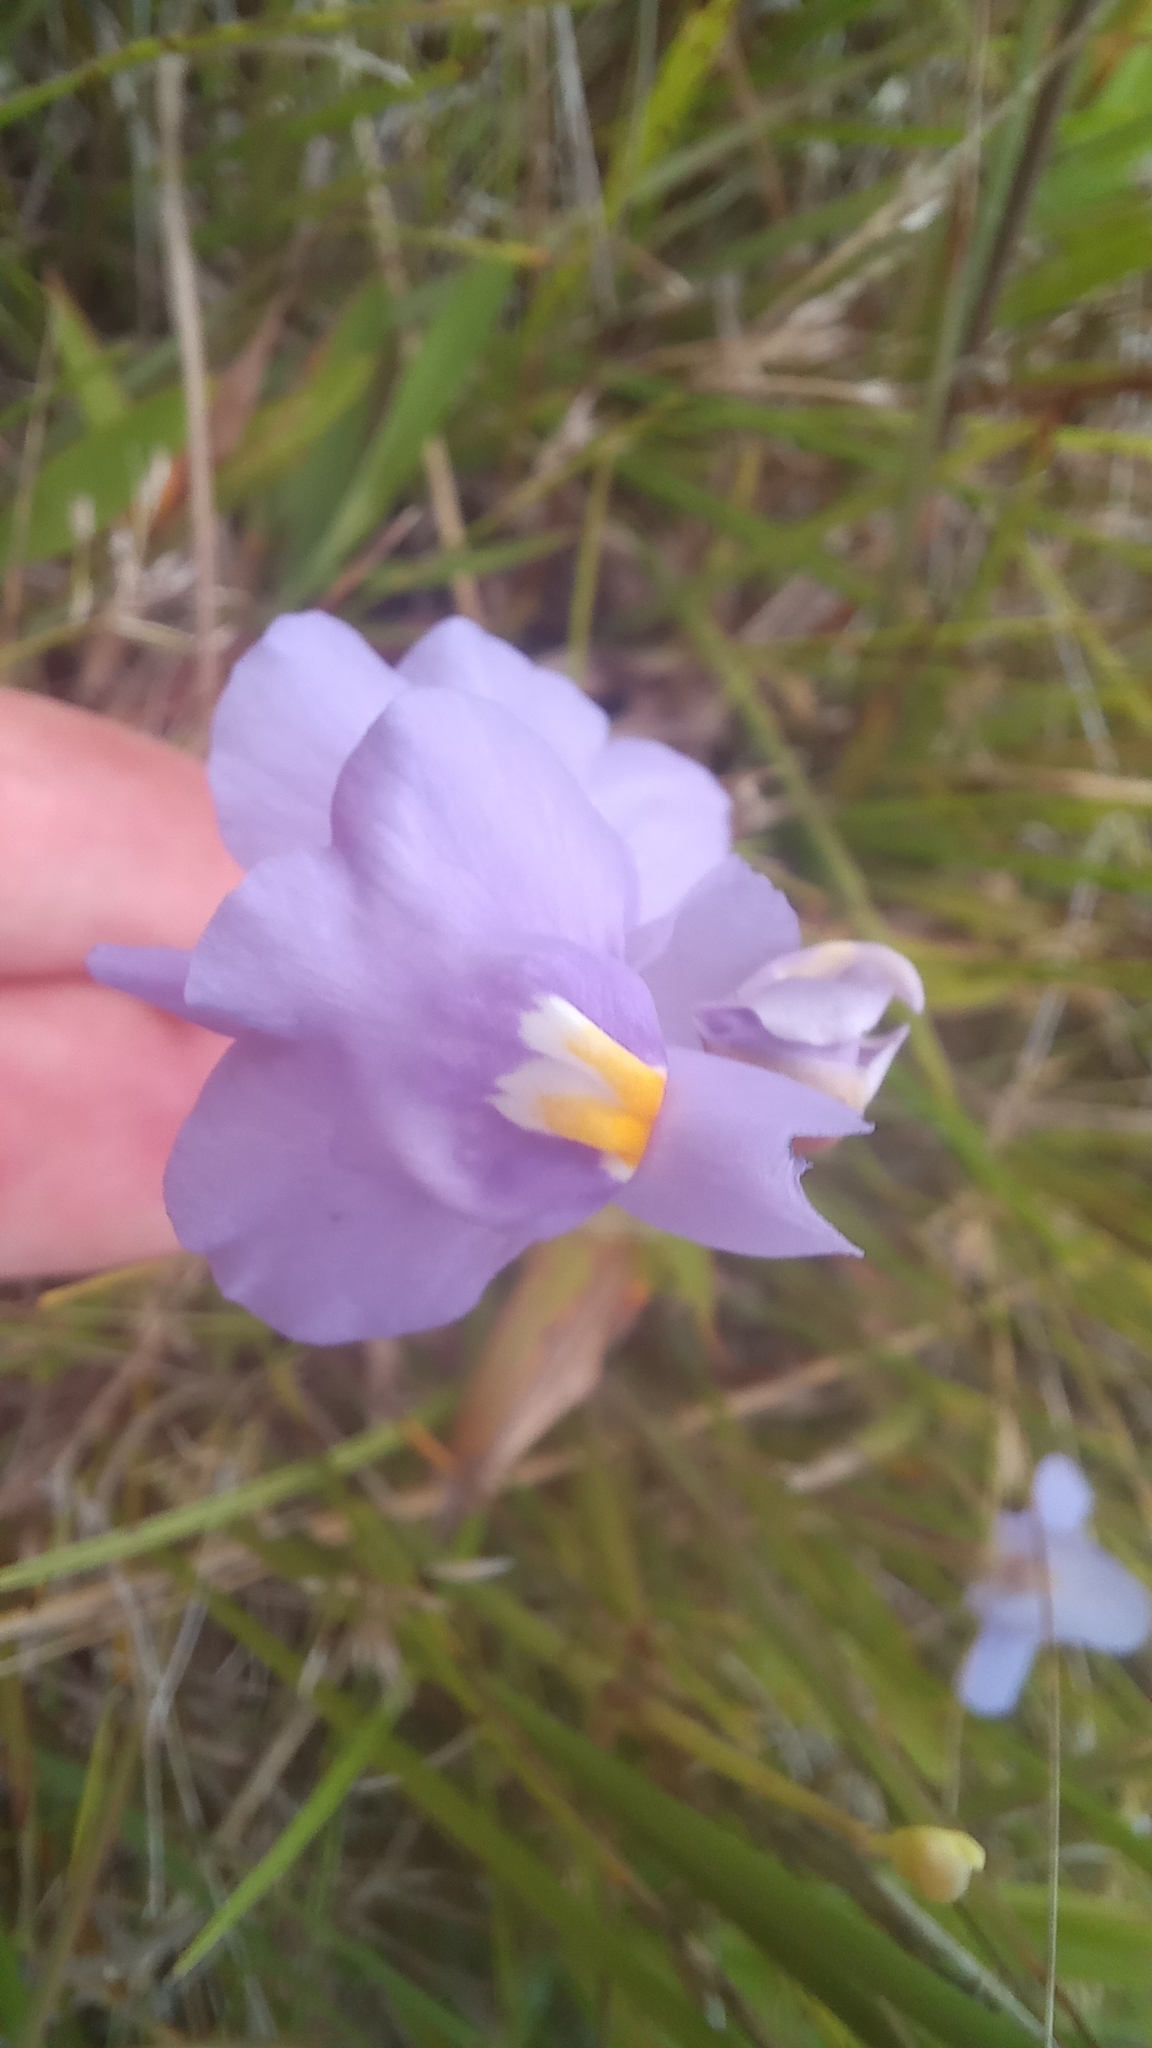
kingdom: Plantae
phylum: Tracheophyta
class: Magnoliopsida
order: Lamiales
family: Lentibulariaceae
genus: Utricularia
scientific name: Utricularia tricolor
